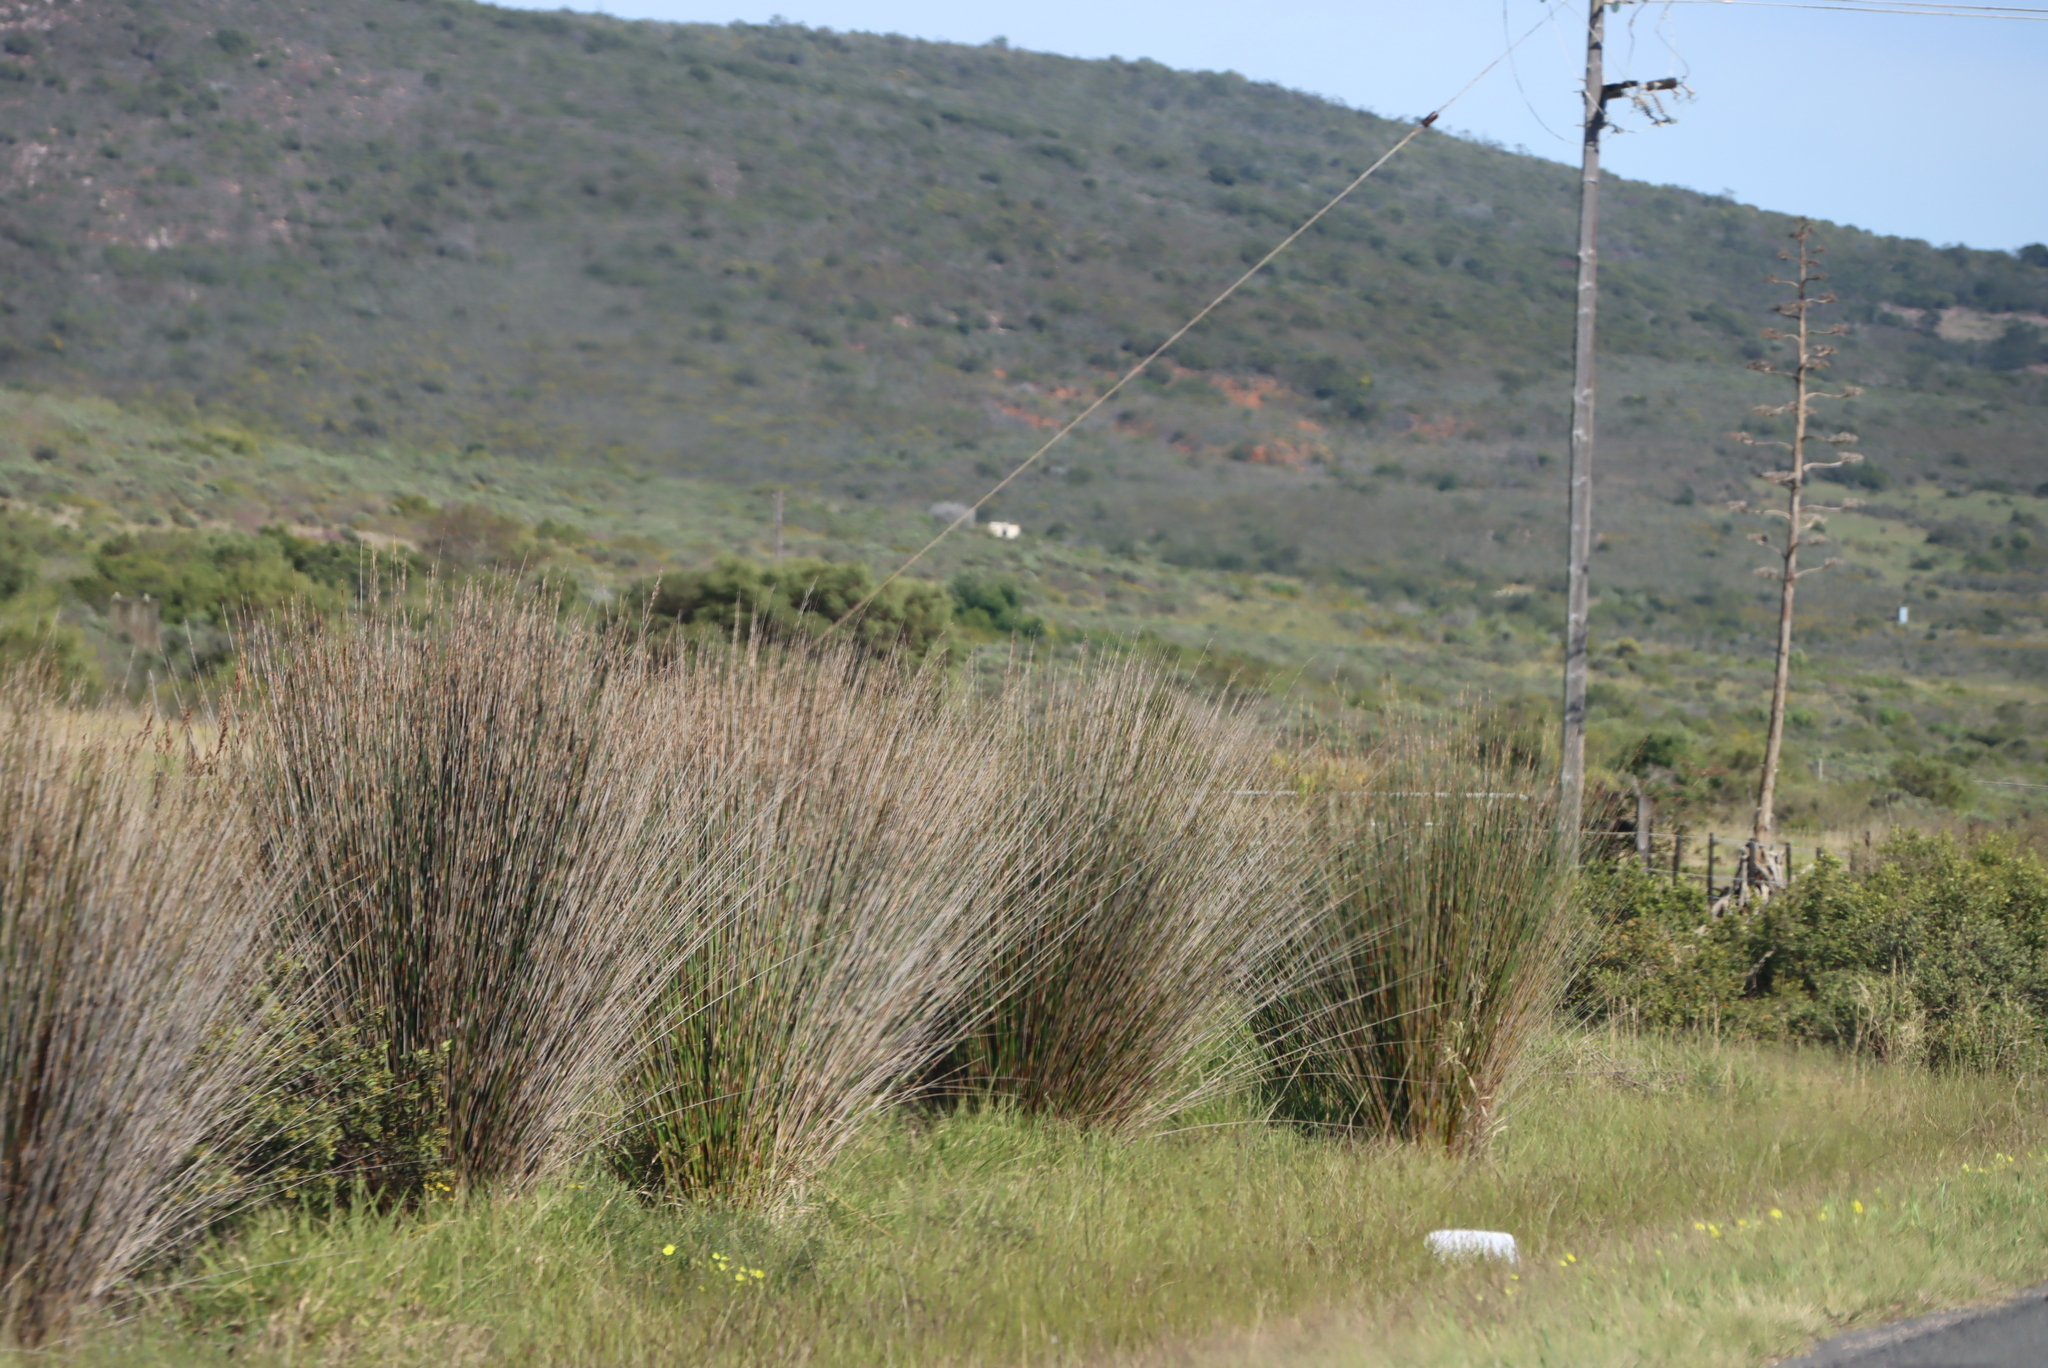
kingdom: Plantae
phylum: Tracheophyta
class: Liliopsida
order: Poales
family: Restionaceae
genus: Thamnochortus
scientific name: Thamnochortus insignis
